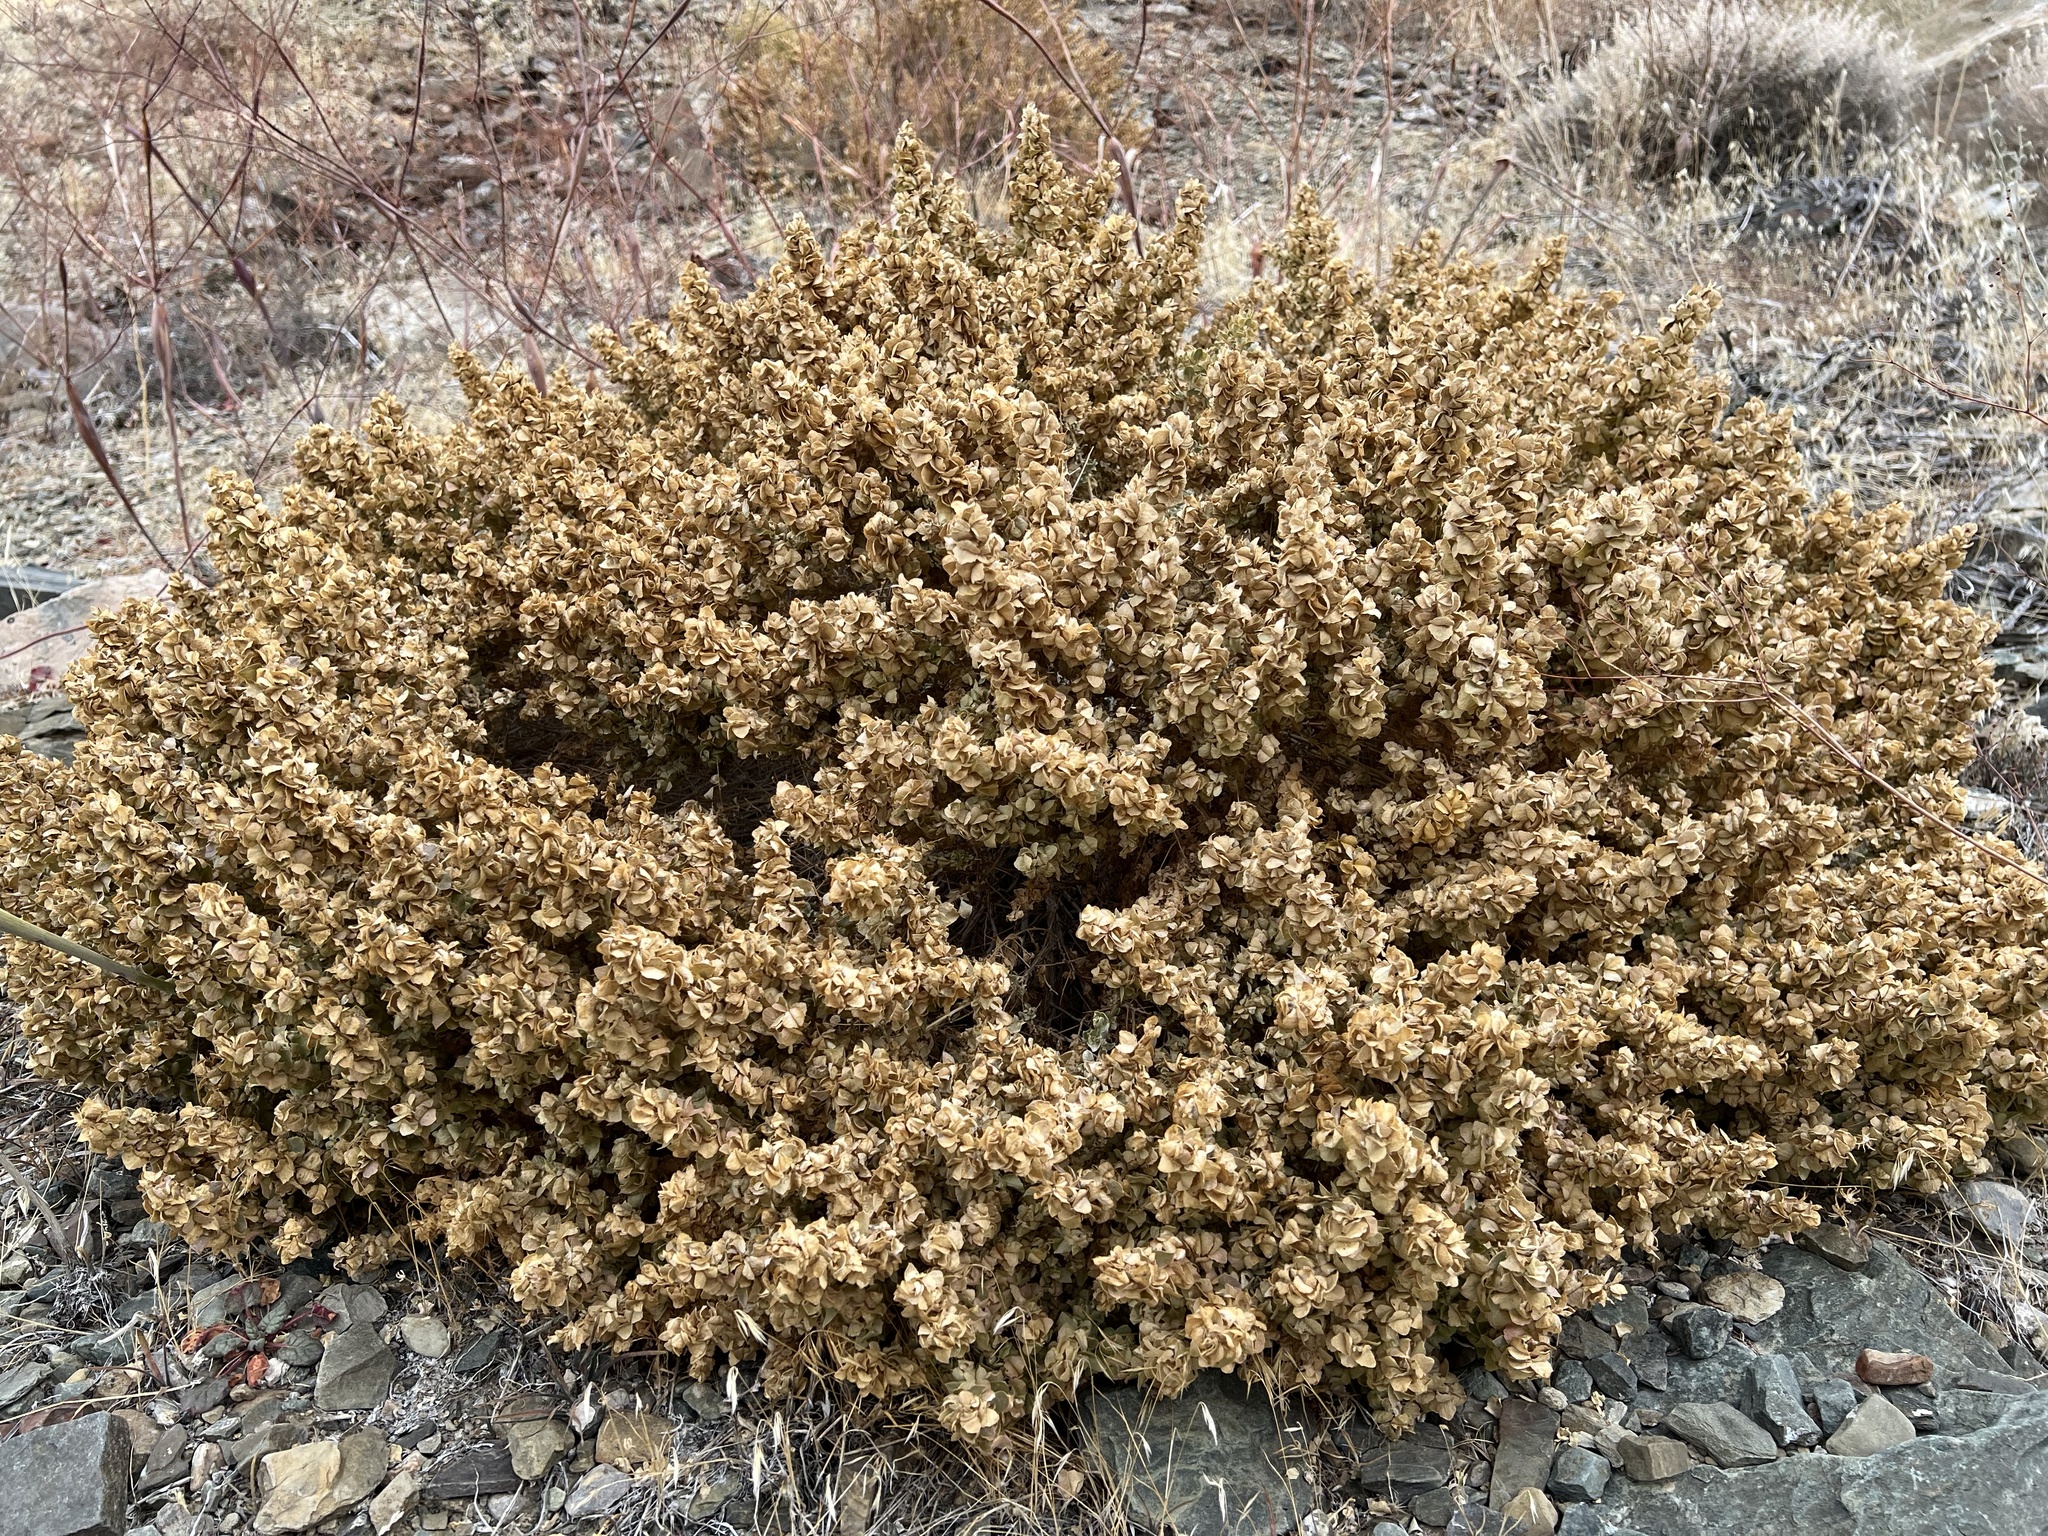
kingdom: Plantae
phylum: Tracheophyta
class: Magnoliopsida
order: Caryophyllales
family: Amaranthaceae
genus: Atriplex
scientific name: Atriplex confertifolia
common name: Shadscale
